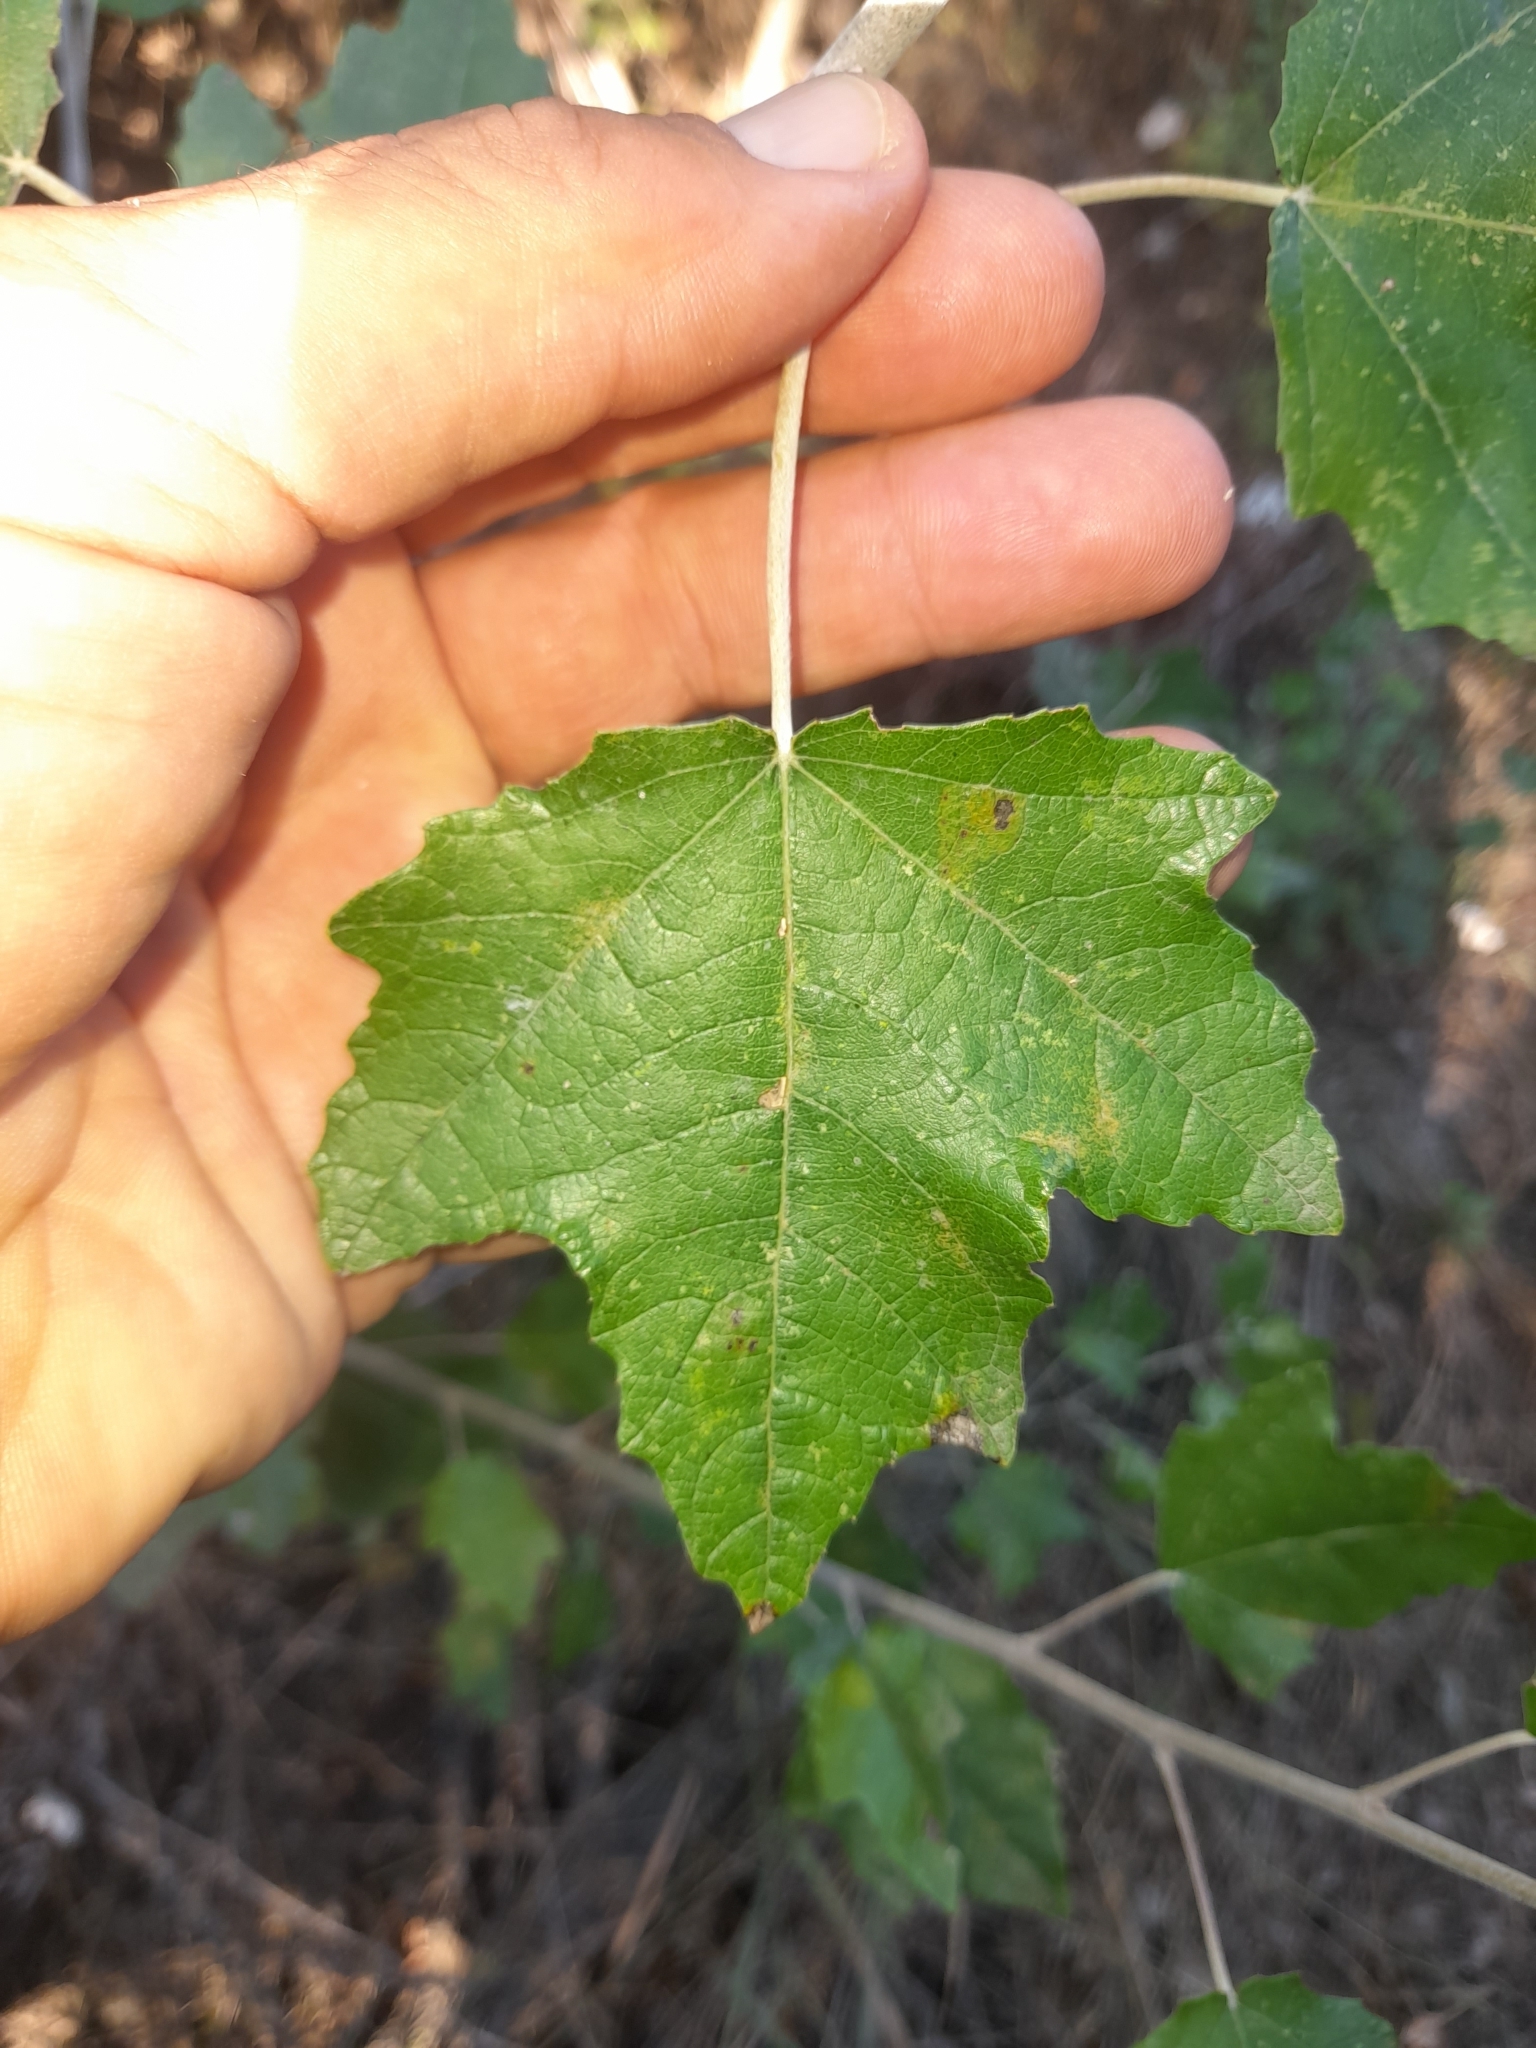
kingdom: Plantae
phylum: Tracheophyta
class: Magnoliopsida
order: Malpighiales
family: Salicaceae
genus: Populus
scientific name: Populus alba
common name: White poplar
